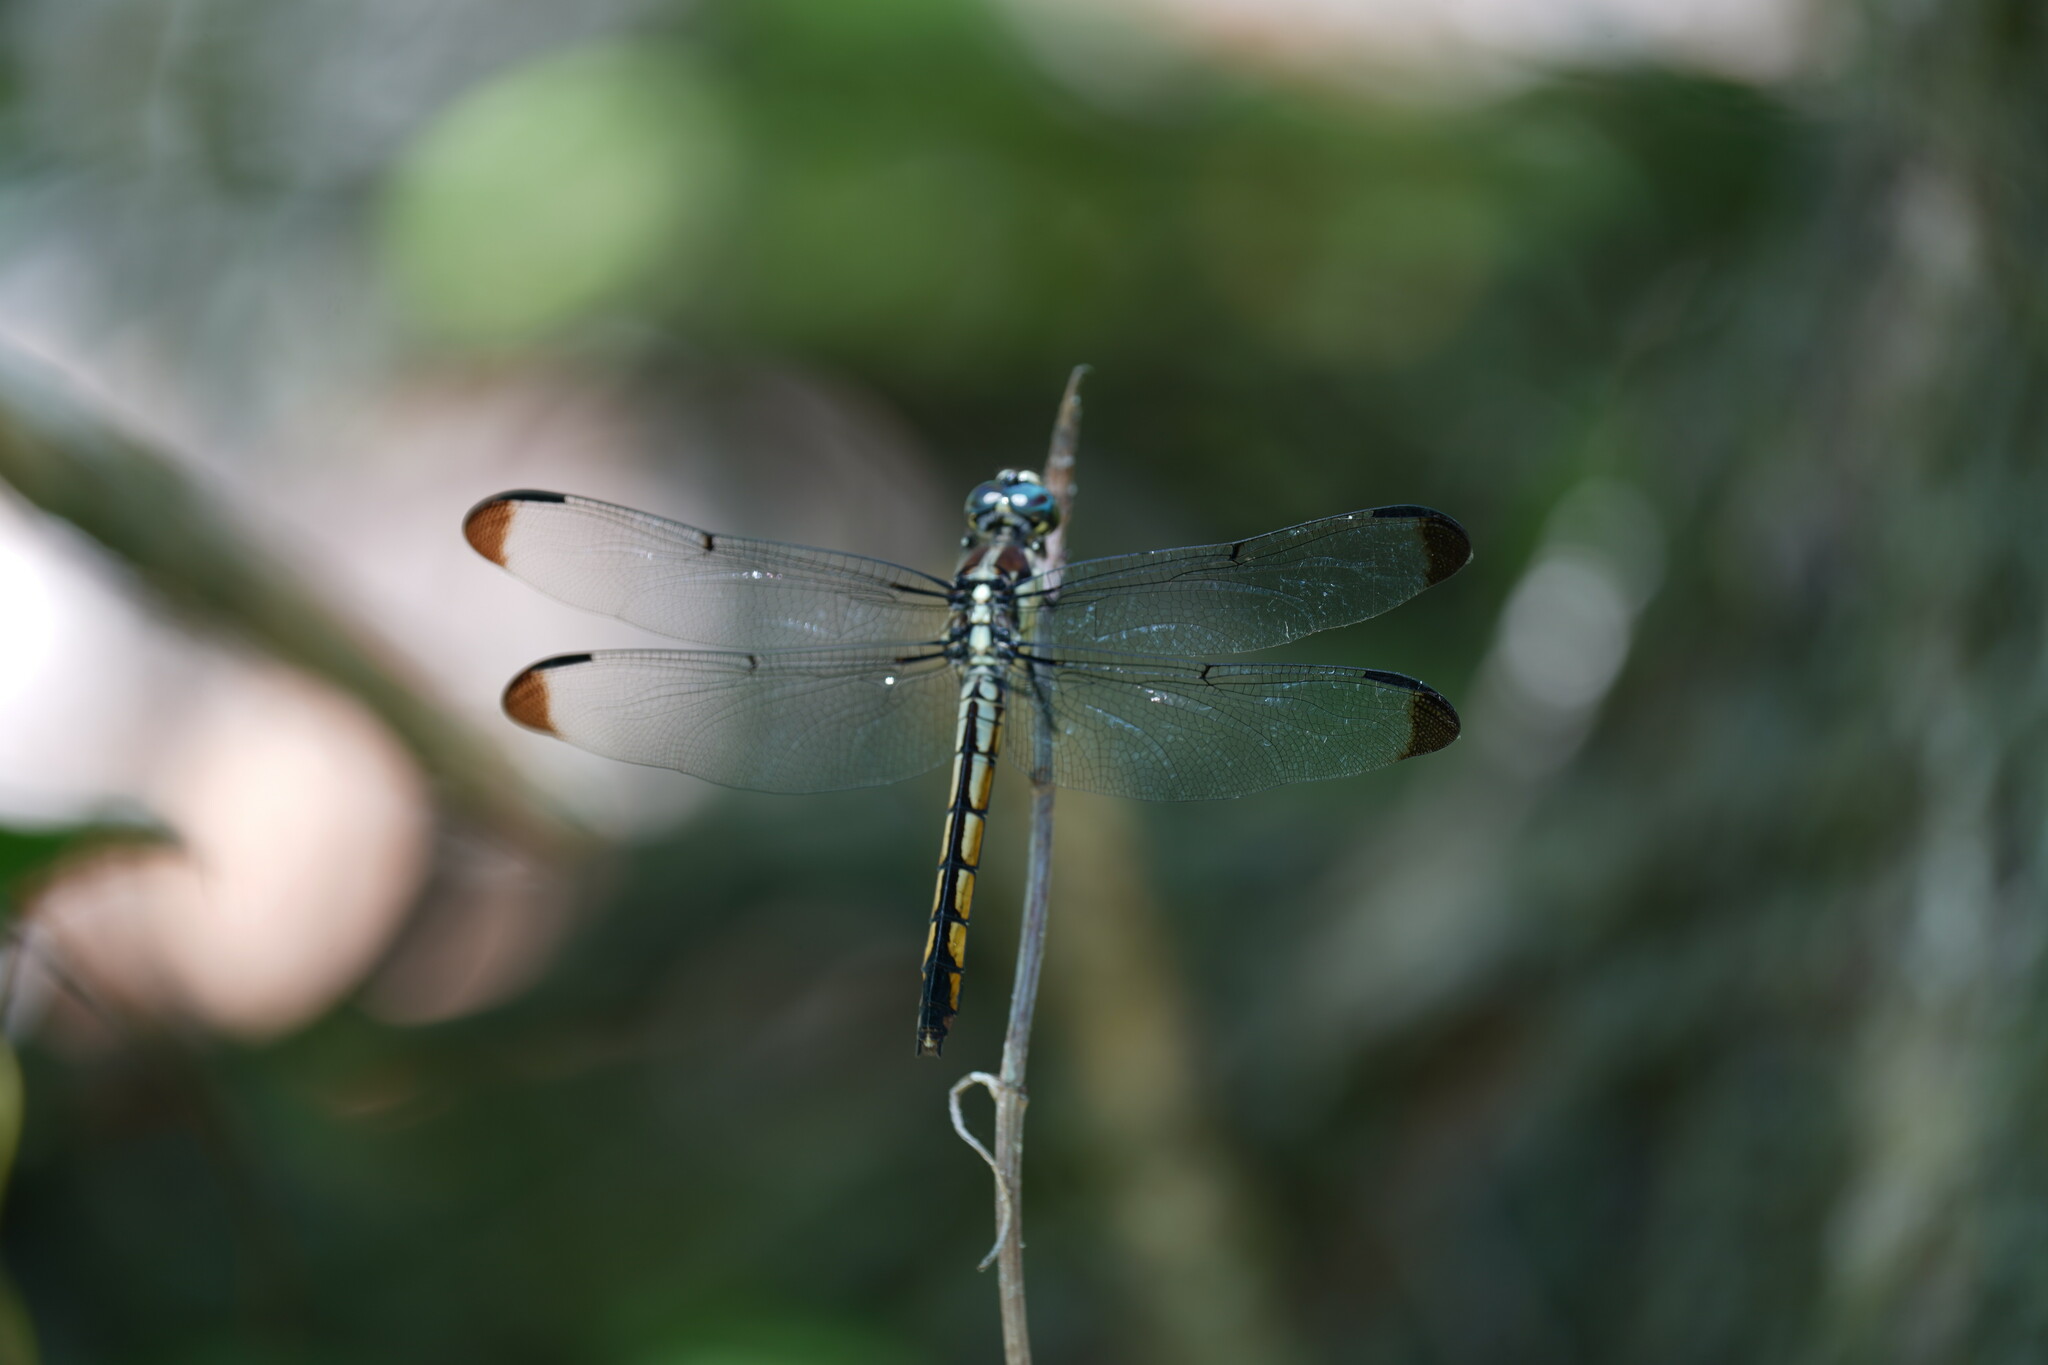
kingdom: Animalia
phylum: Arthropoda
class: Insecta
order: Odonata
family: Libellulidae
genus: Libellula
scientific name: Libellula vibrans
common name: Great blue skimmer
